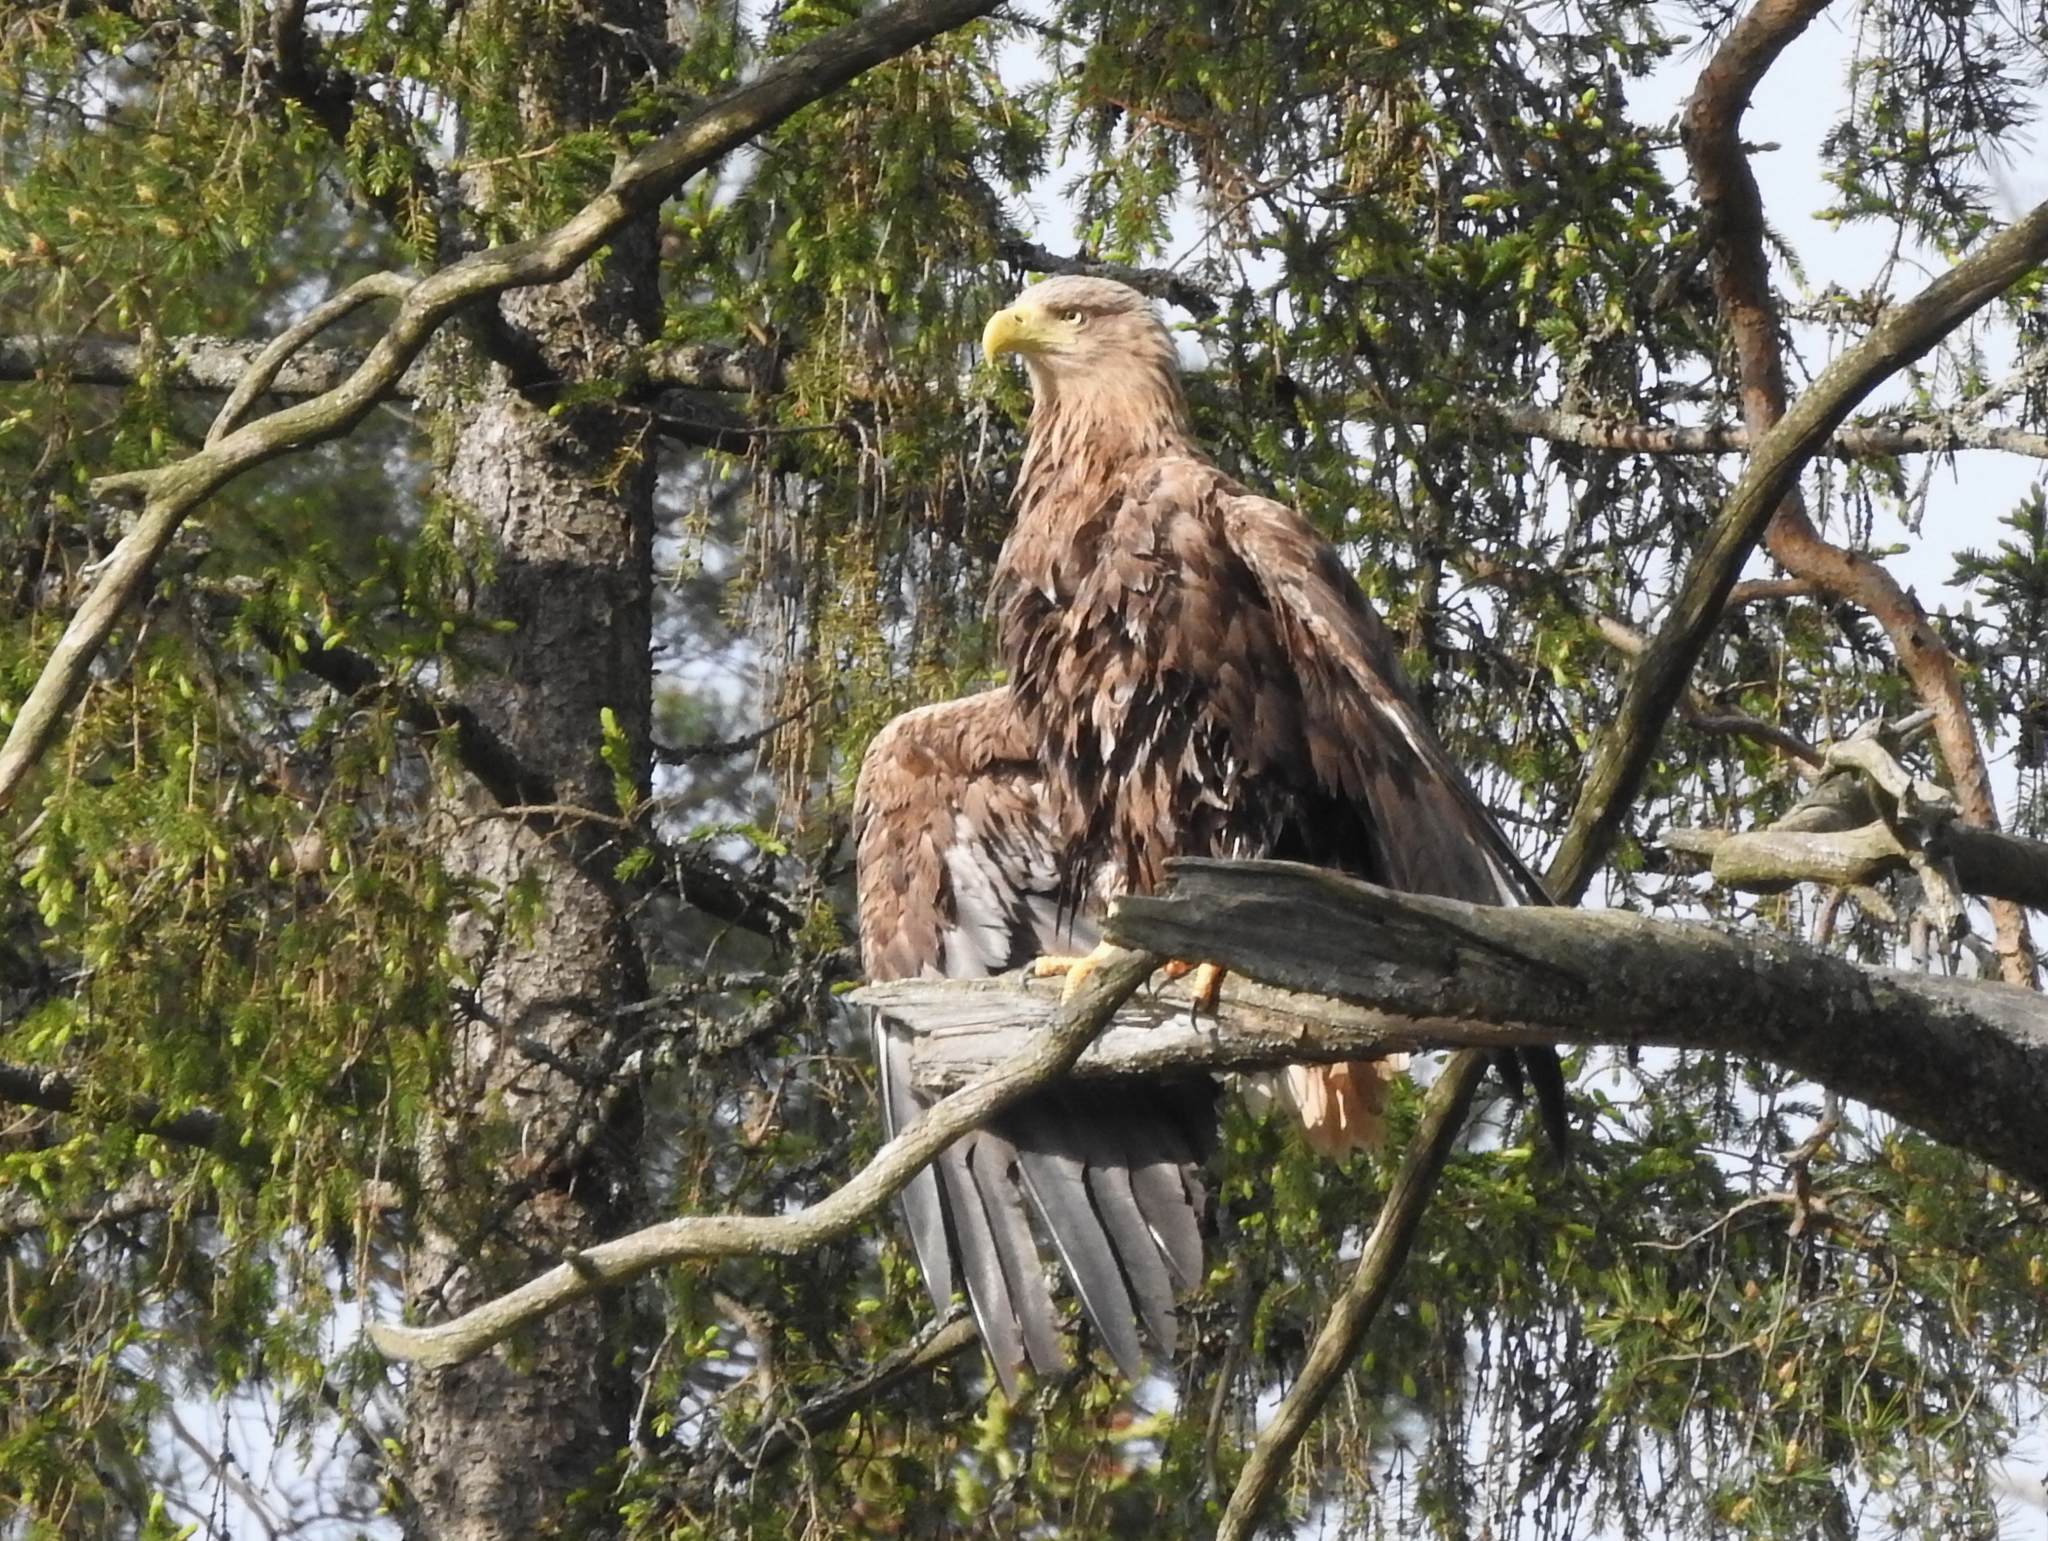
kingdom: Animalia
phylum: Chordata
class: Aves
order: Accipitriformes
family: Accipitridae
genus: Haliaeetus
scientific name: Haliaeetus albicilla
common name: White-tailed eagle
